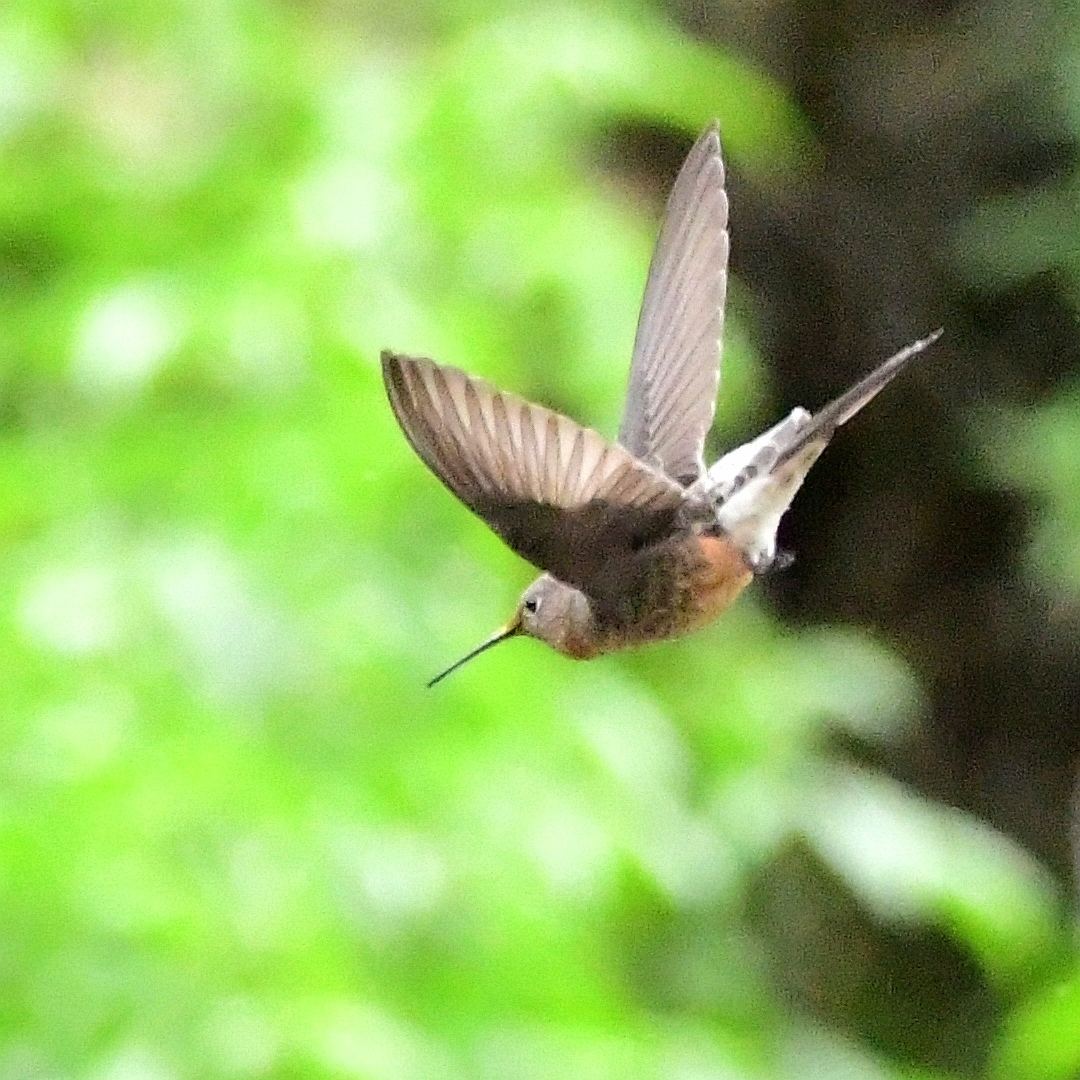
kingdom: Animalia
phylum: Chordata
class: Aves
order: Apodiformes
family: Trochilidae
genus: Patagona
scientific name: Patagona gigas
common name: Giant hummingbird
